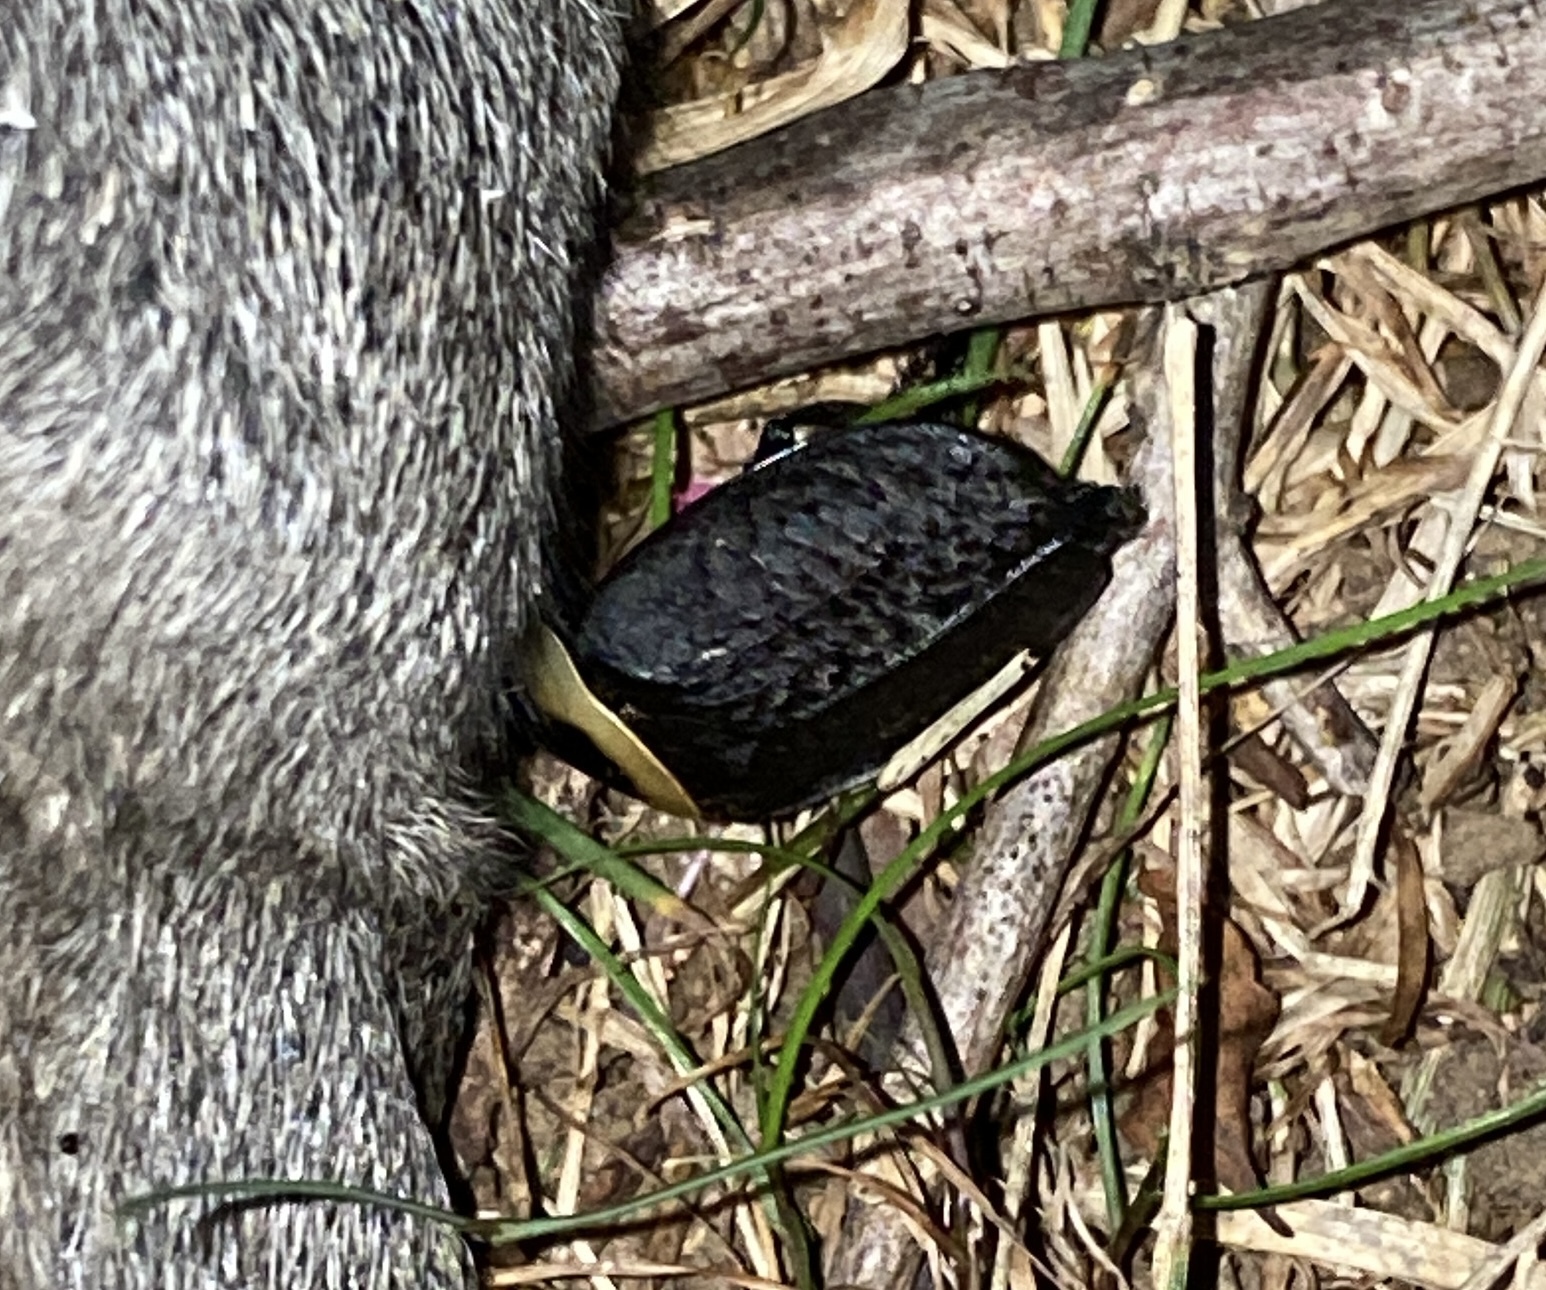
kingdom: Animalia
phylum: Arthropoda
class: Insecta
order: Coleoptera
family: Staphylinidae
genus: Necrophila
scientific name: Necrophila americana
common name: American carrion beetle
